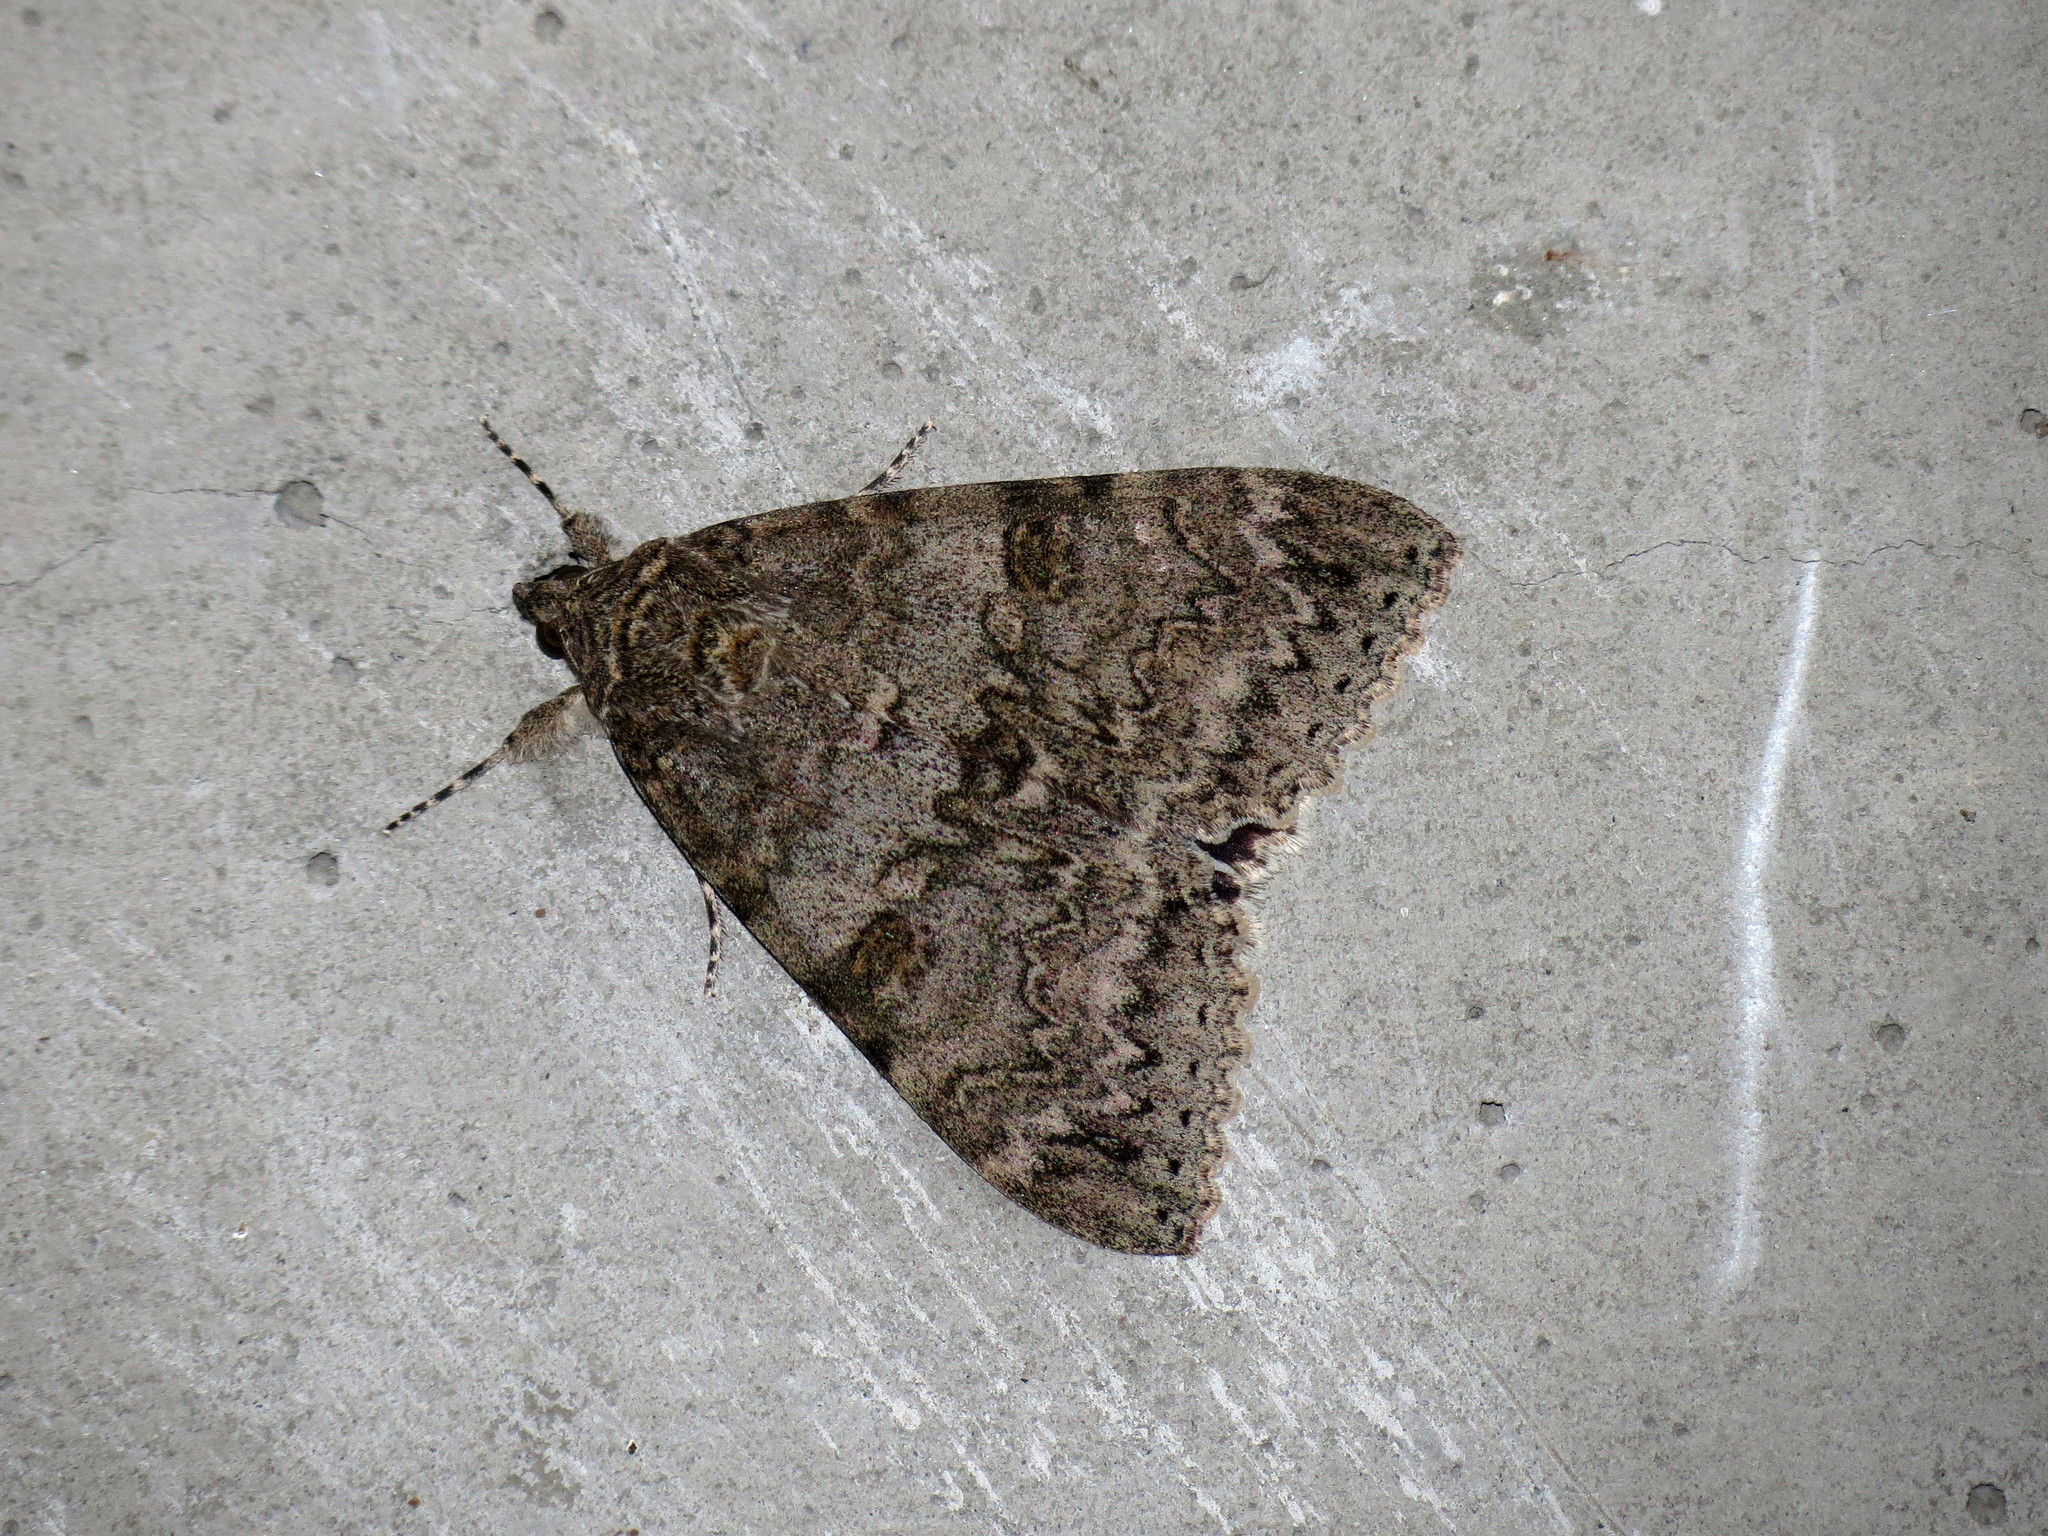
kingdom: Animalia
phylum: Arthropoda
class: Insecta
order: Lepidoptera
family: Erebidae
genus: Catocala
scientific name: Catocala nupta
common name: Red underwing
